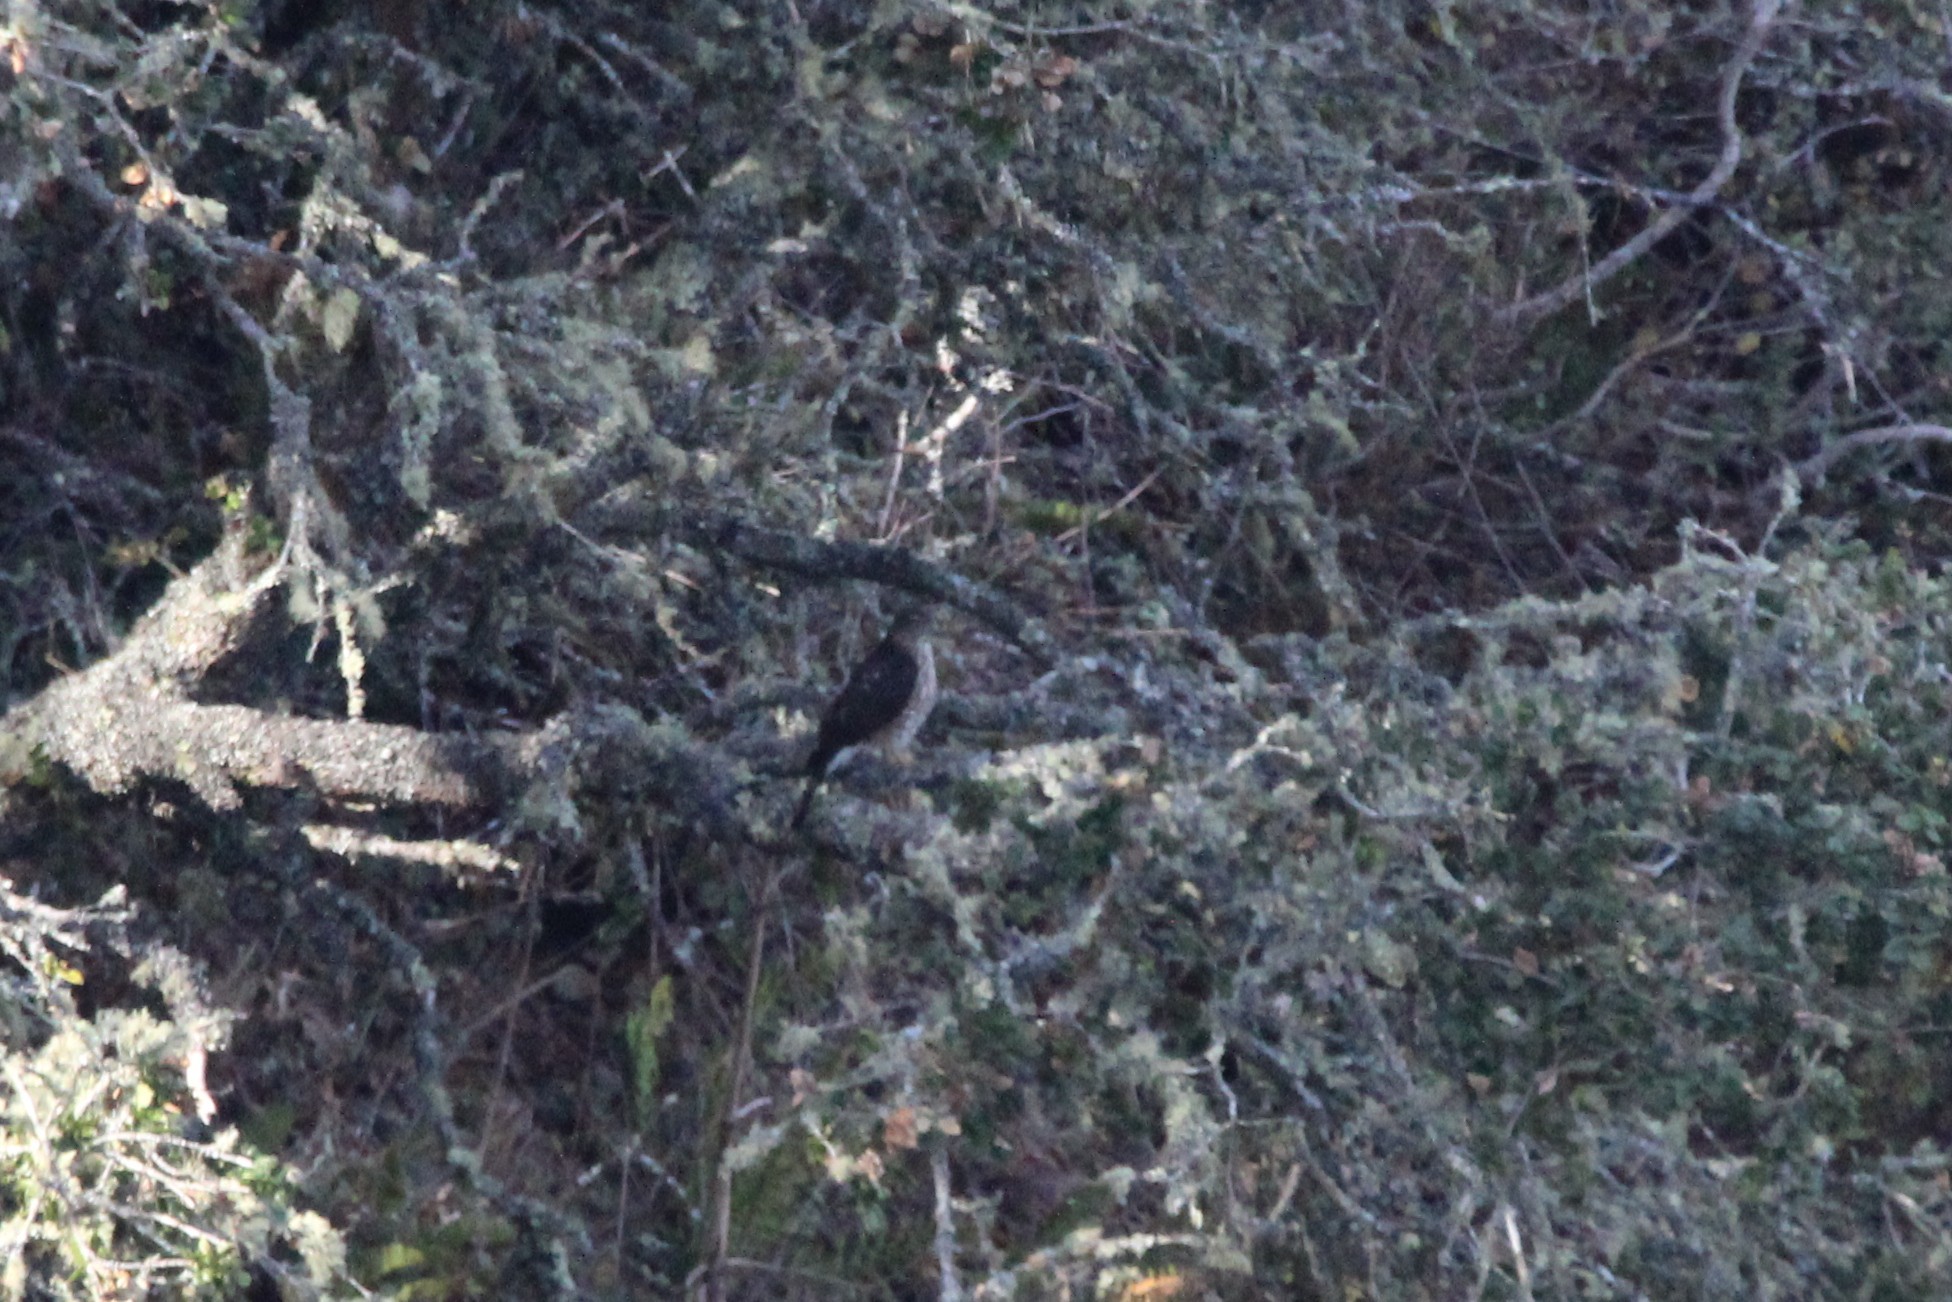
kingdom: Animalia
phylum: Chordata
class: Aves
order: Accipitriformes
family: Accipitridae
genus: Accipiter
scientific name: Accipiter
